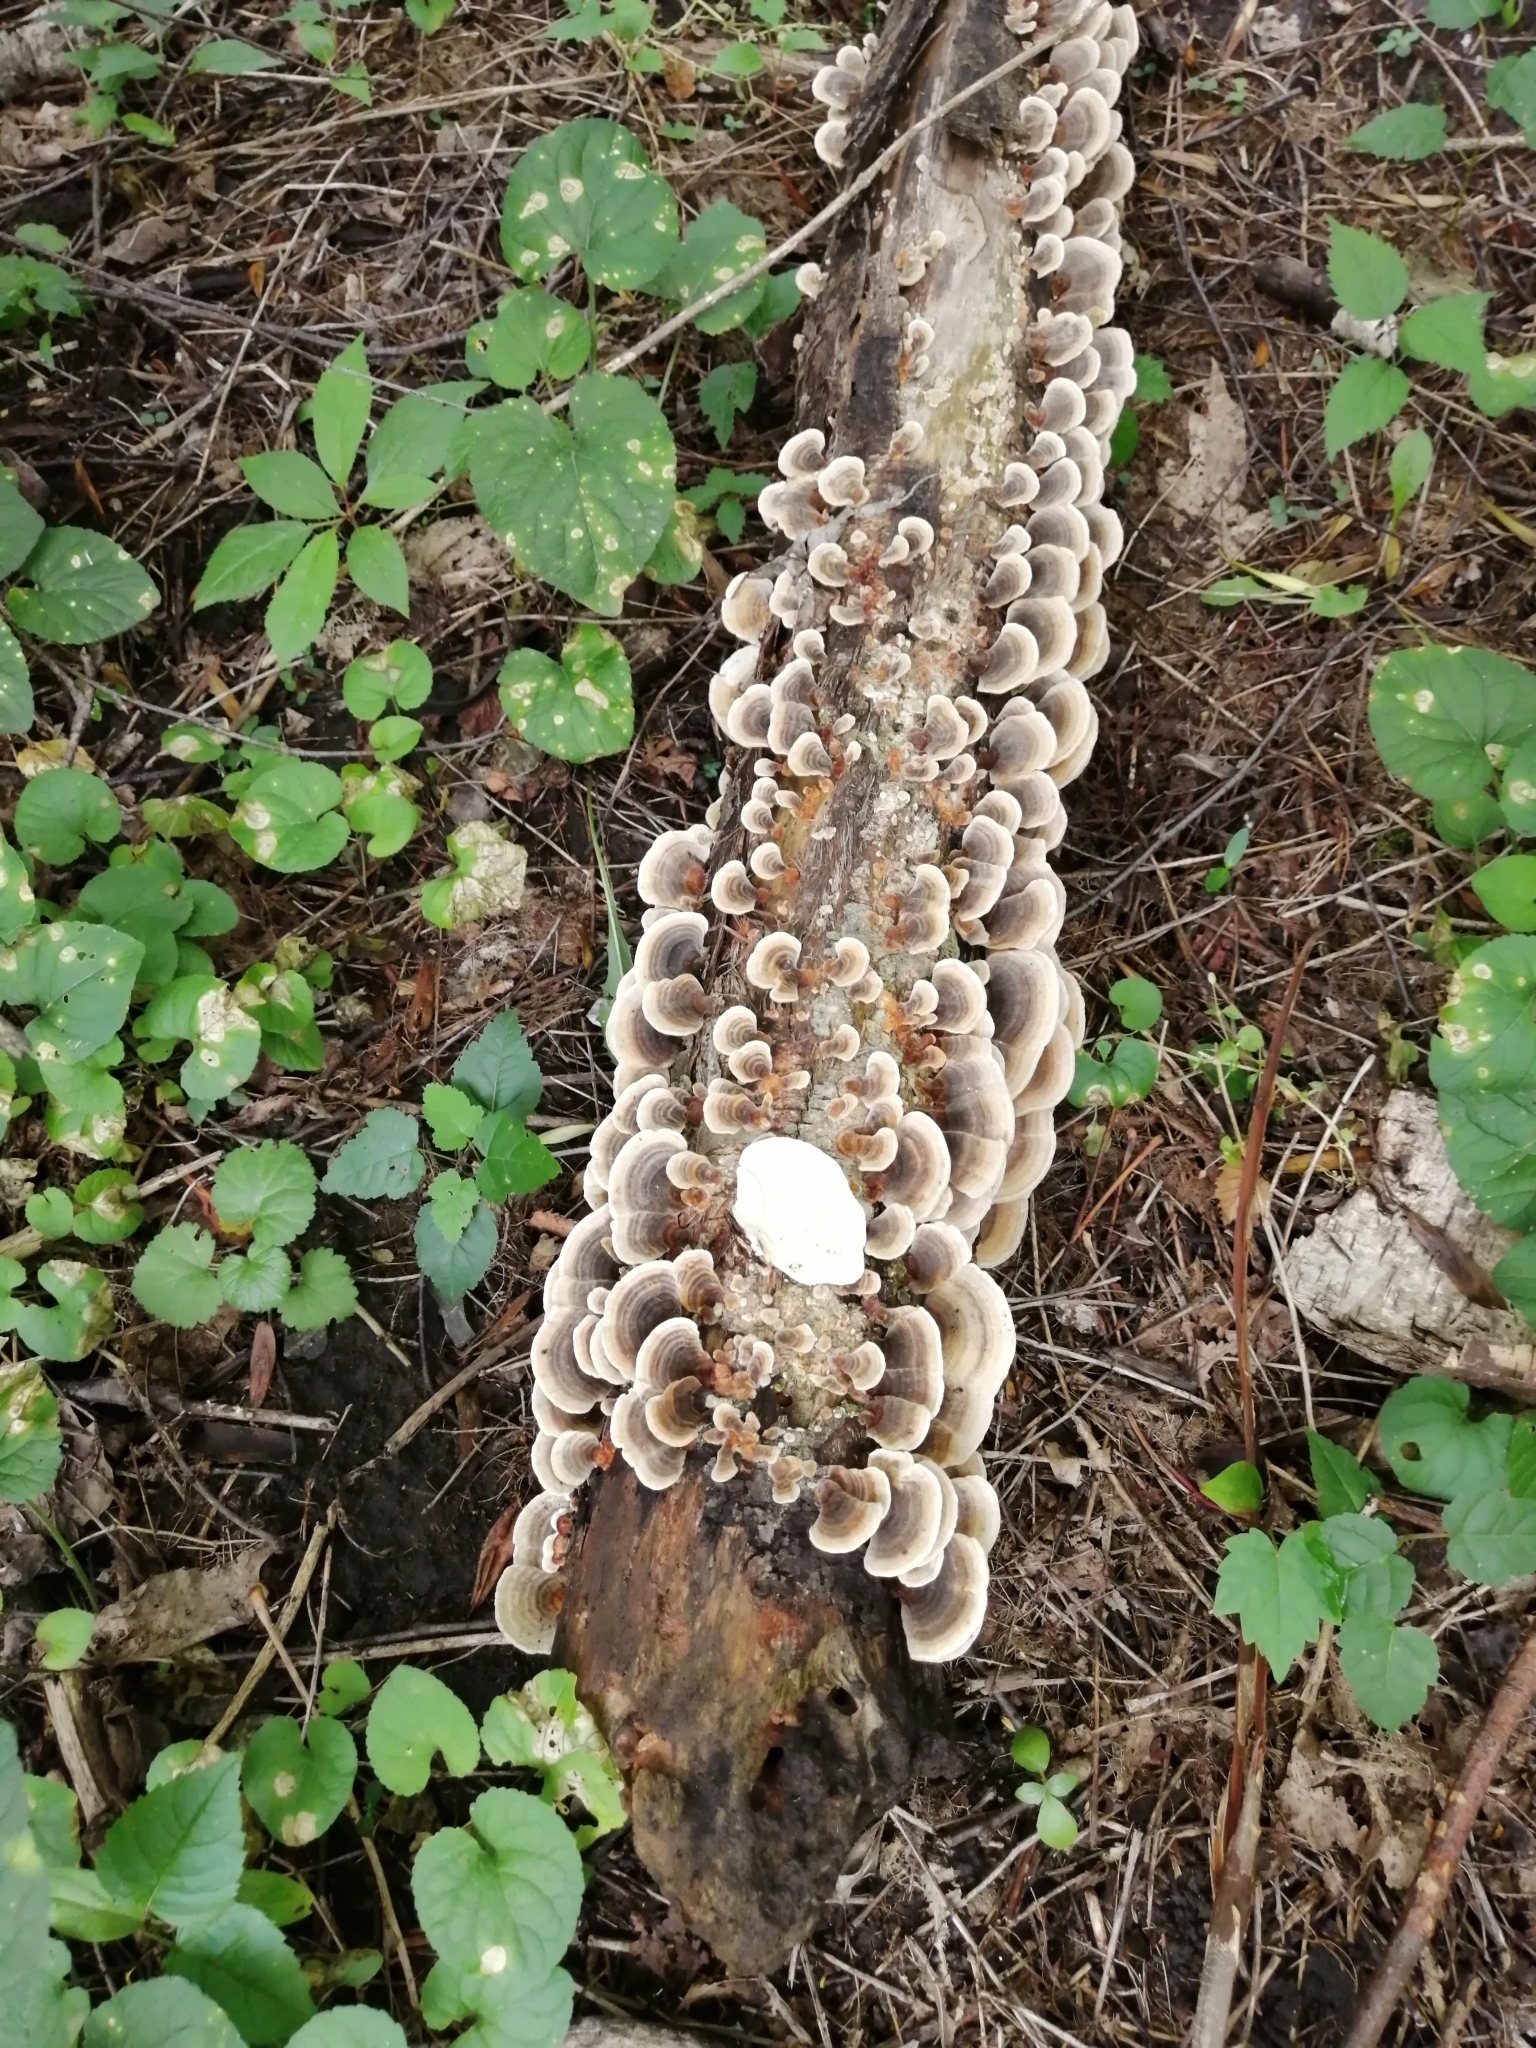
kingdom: Fungi
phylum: Basidiomycota
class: Agaricomycetes
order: Polyporales
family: Polyporaceae
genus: Trametes
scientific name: Trametes versicolor
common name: Turkeytail
